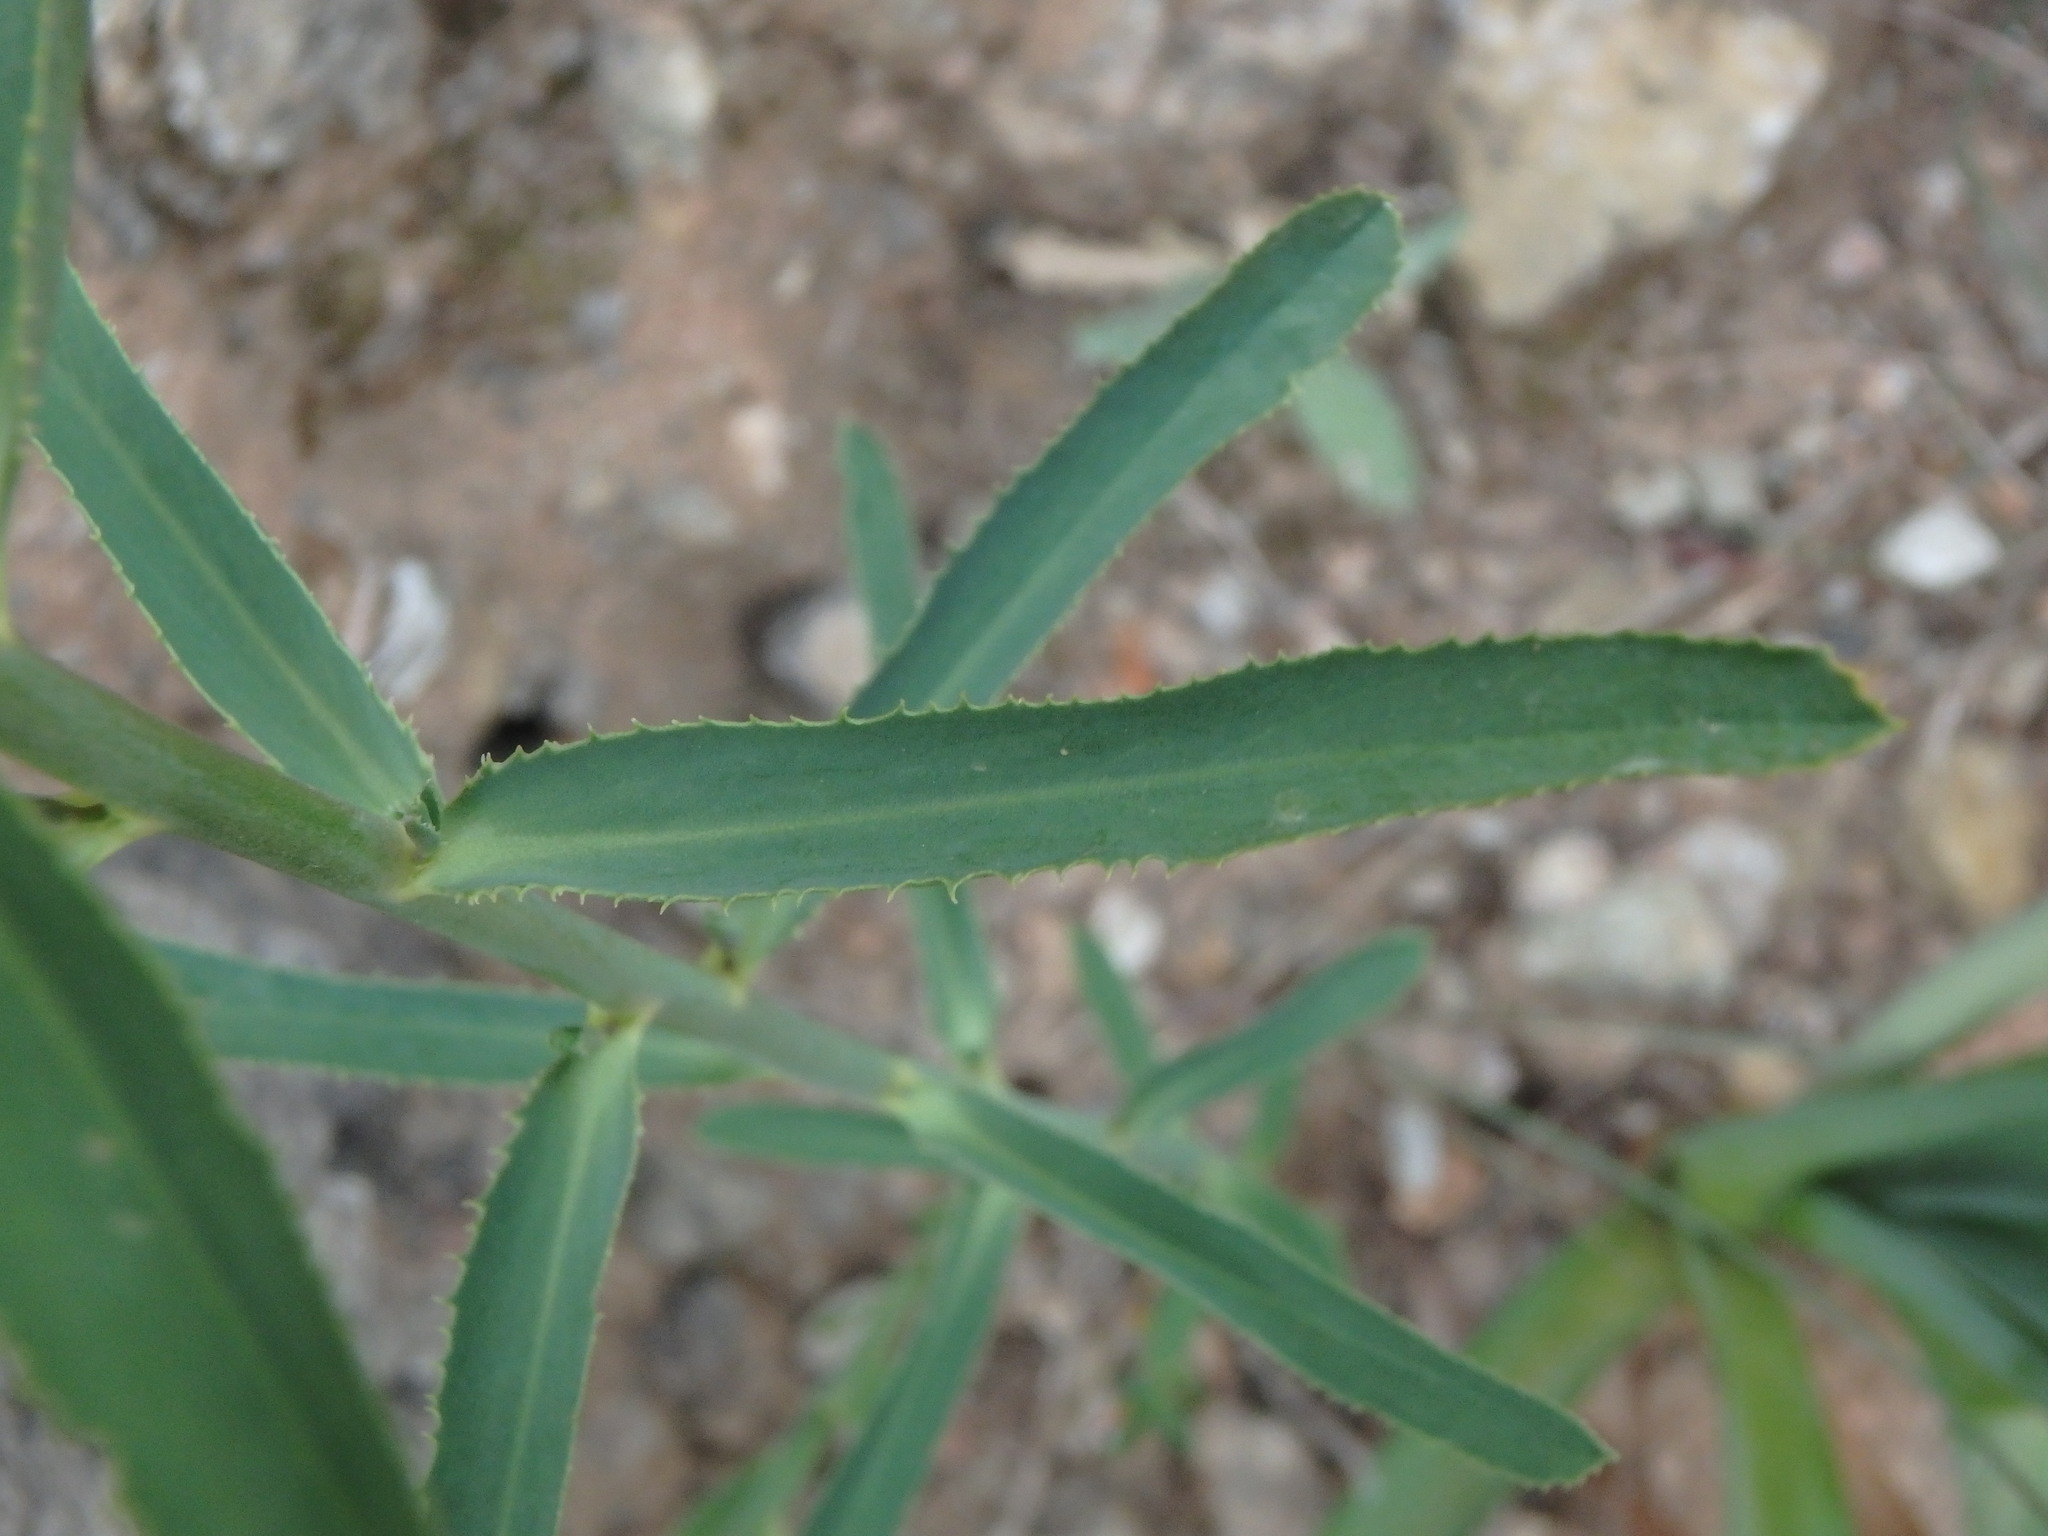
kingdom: Plantae
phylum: Tracheophyta
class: Magnoliopsida
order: Malpighiales
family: Euphorbiaceae
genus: Euphorbia
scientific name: Euphorbia serrata
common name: Serrate spurge
